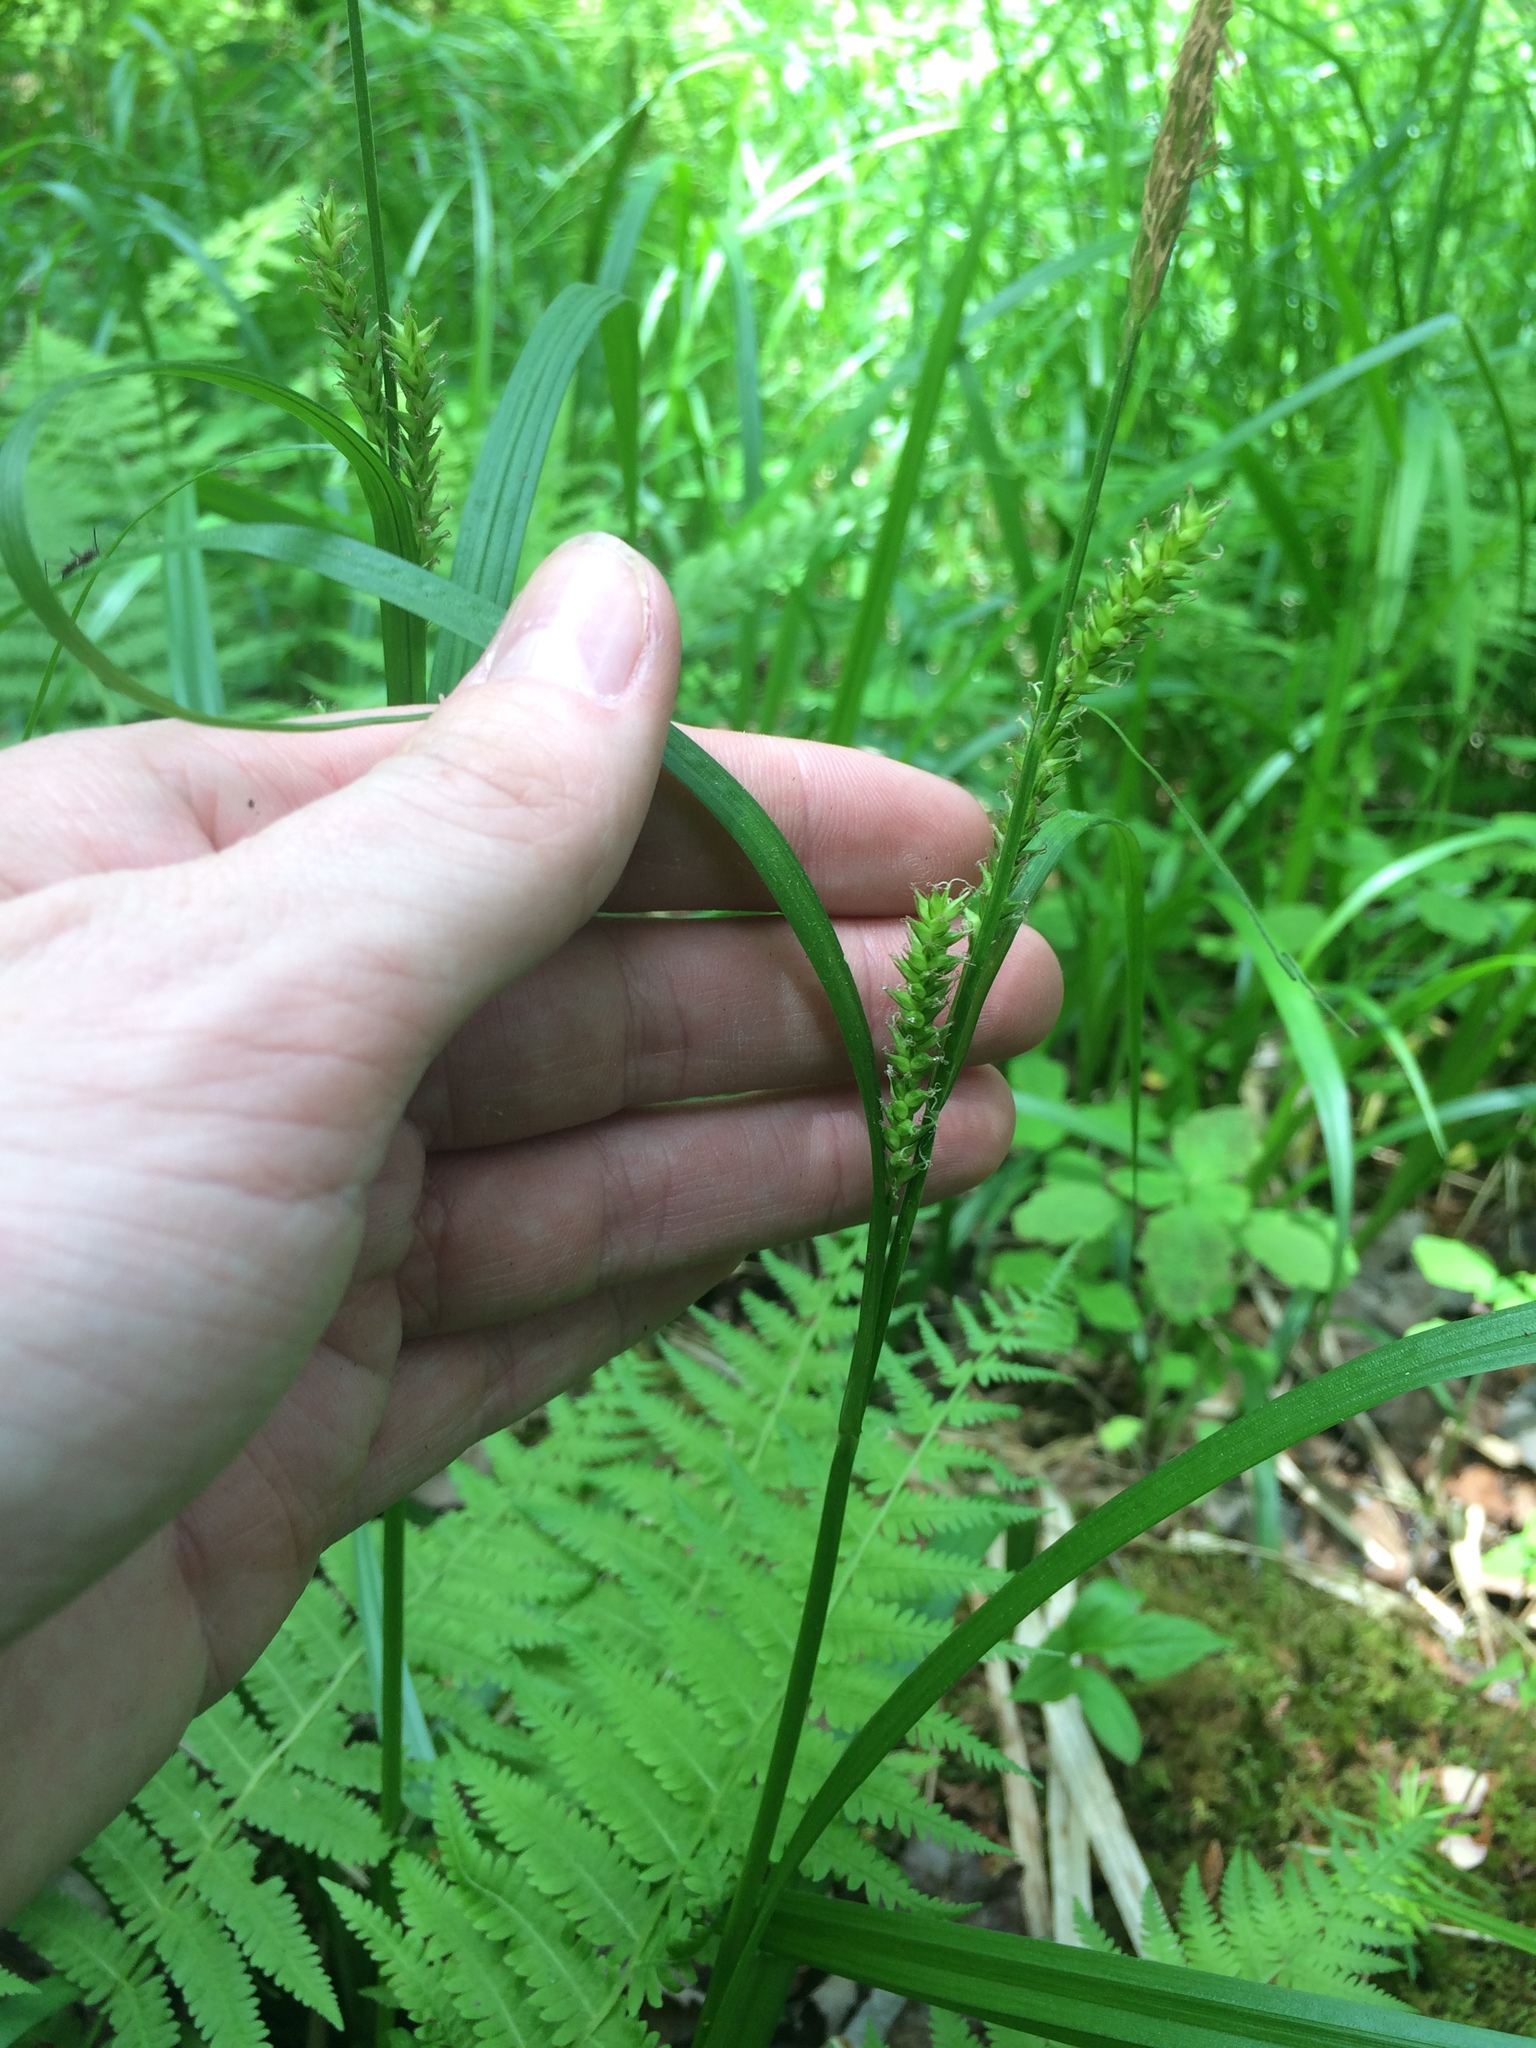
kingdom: Plantae
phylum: Tracheophyta
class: Liliopsida
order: Poales
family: Cyperaceae
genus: Carex
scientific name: Carex scabrata
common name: Eastern rough sedge
